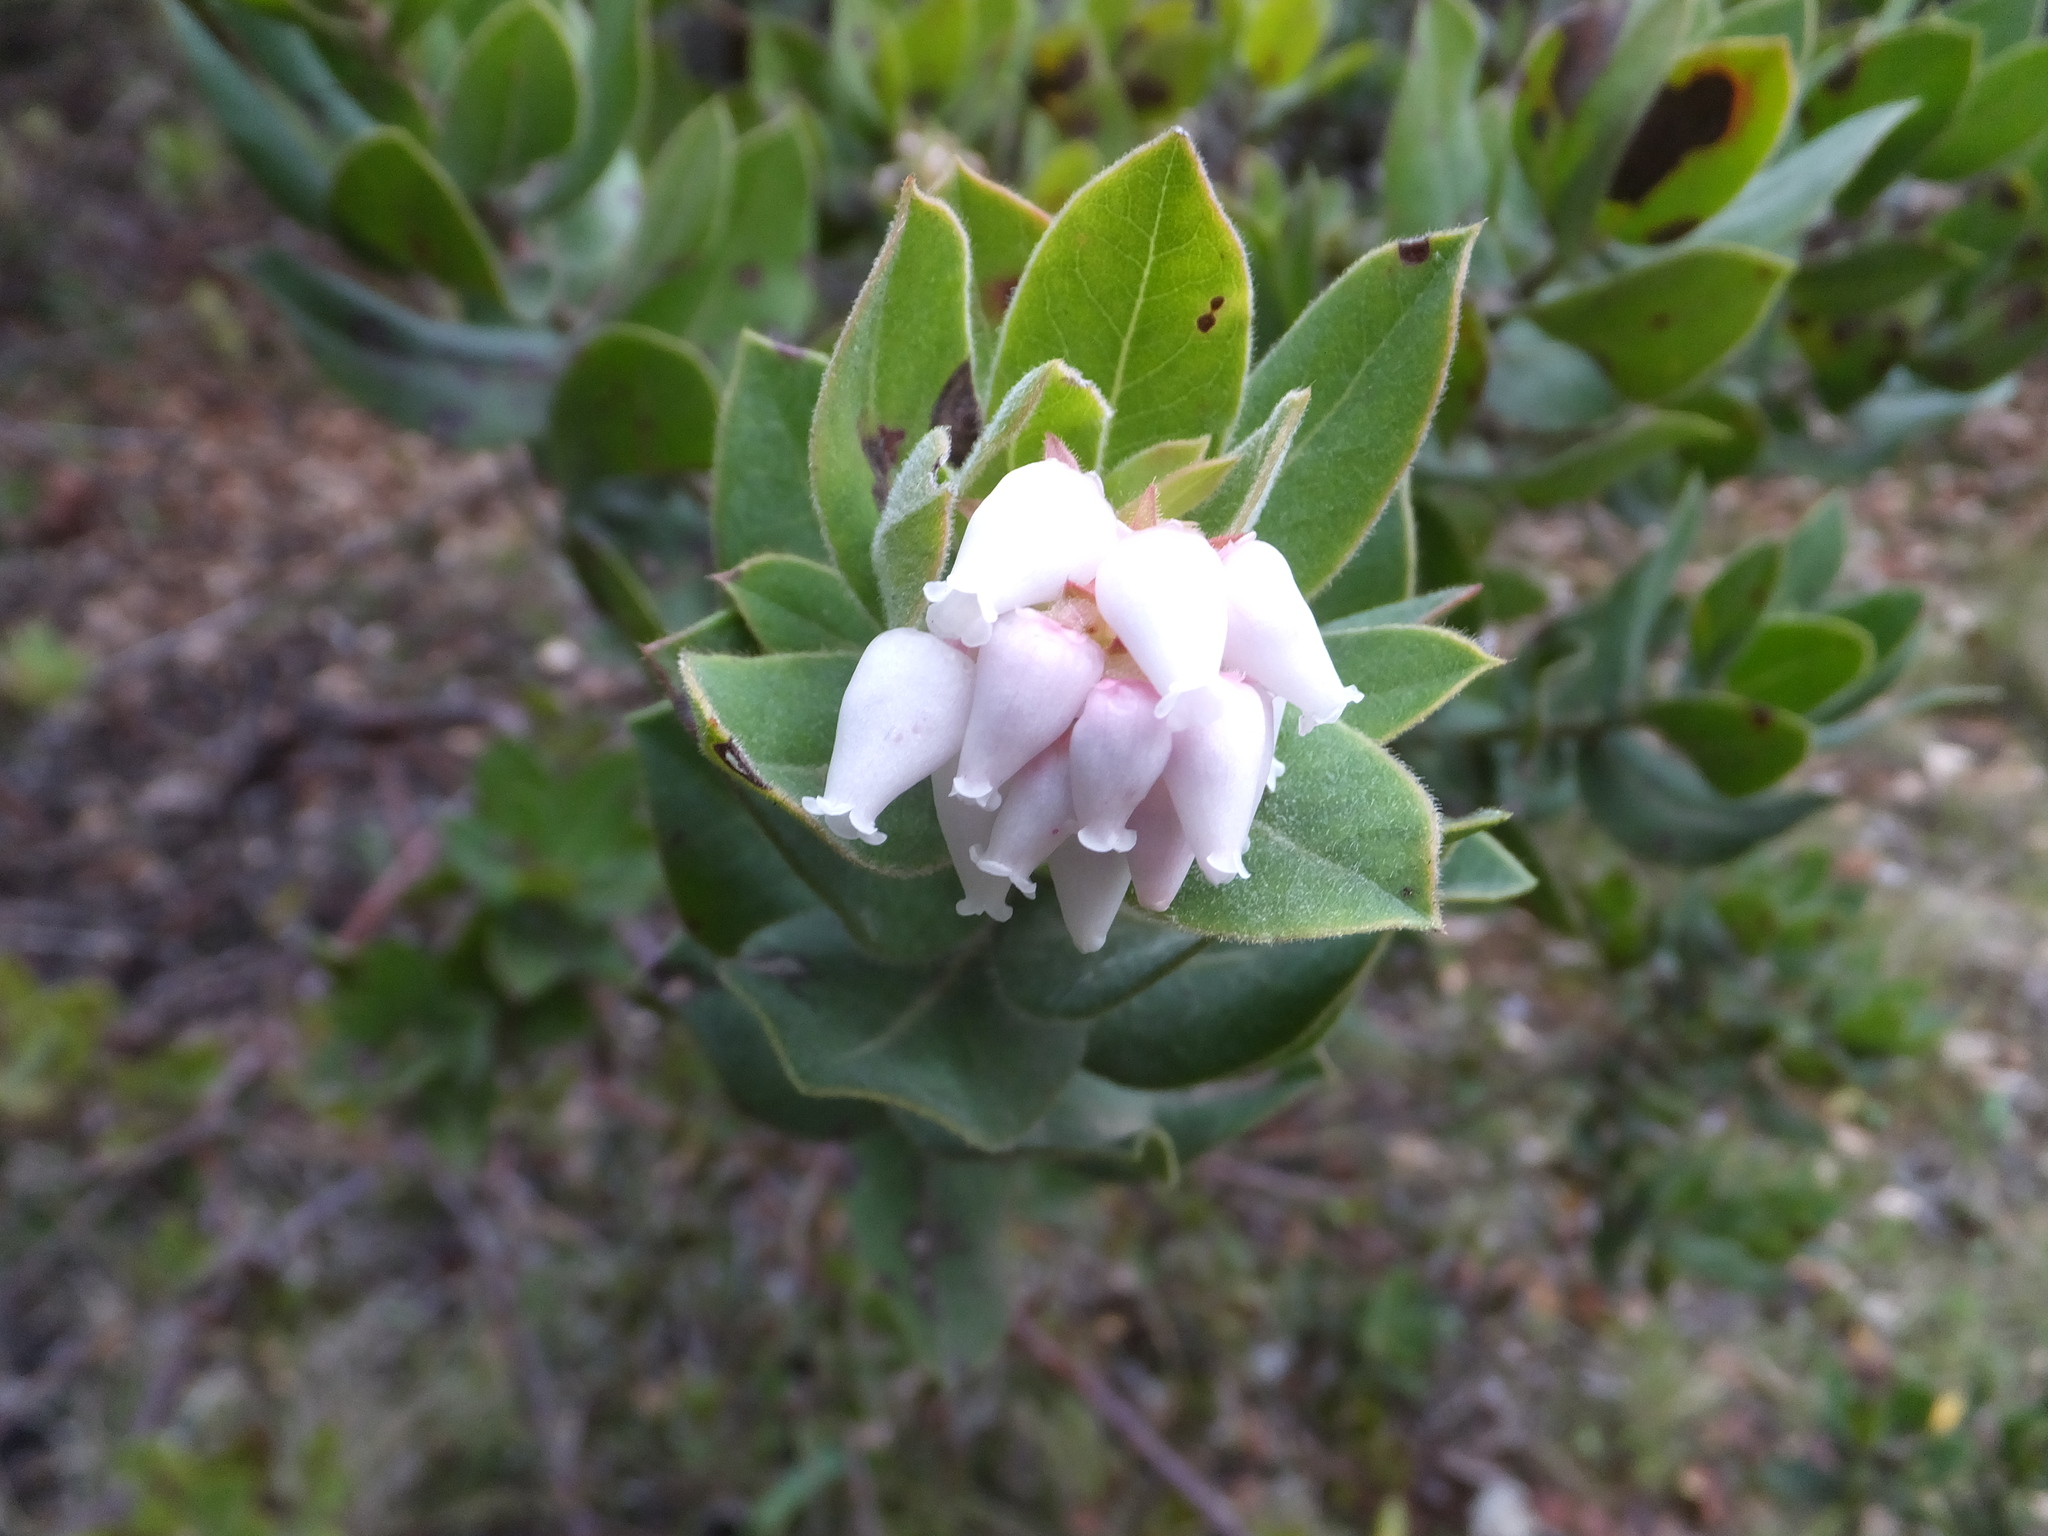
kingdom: Plantae
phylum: Tracheophyta
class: Magnoliopsida
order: Ericales
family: Ericaceae
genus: Arctostaphylos
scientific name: Arctostaphylos regismontana
